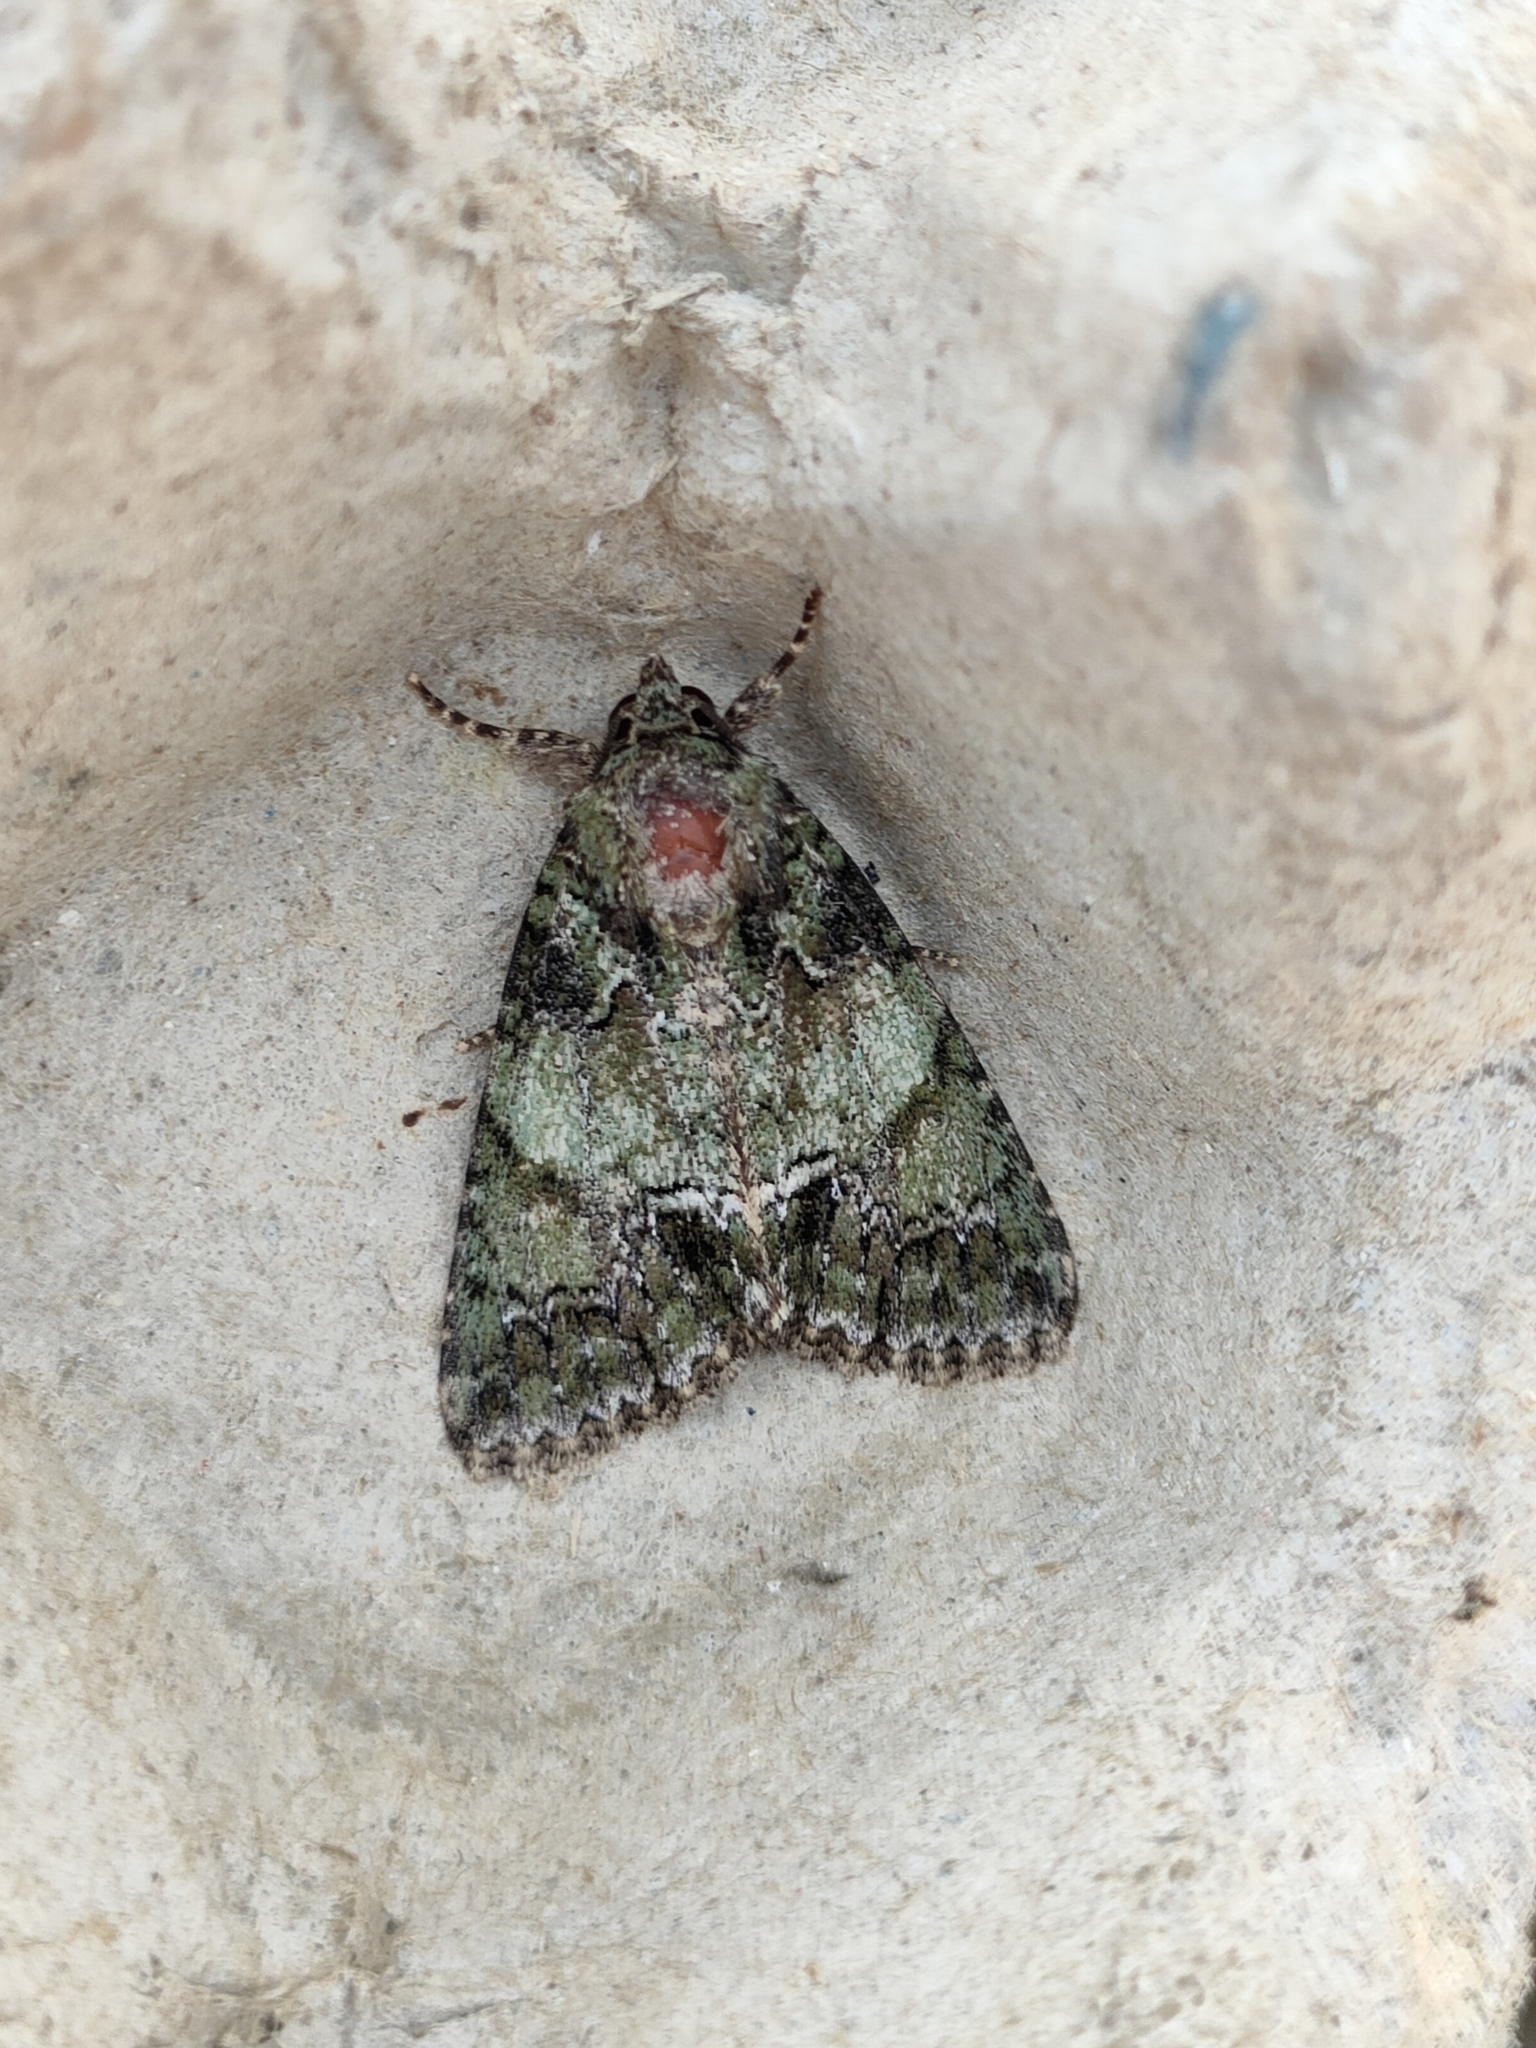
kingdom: Animalia
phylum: Arthropoda
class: Insecta
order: Lepidoptera
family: Noctuidae
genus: Polyphaenis
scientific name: Polyphaenis sericata
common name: Guernsey underwing
